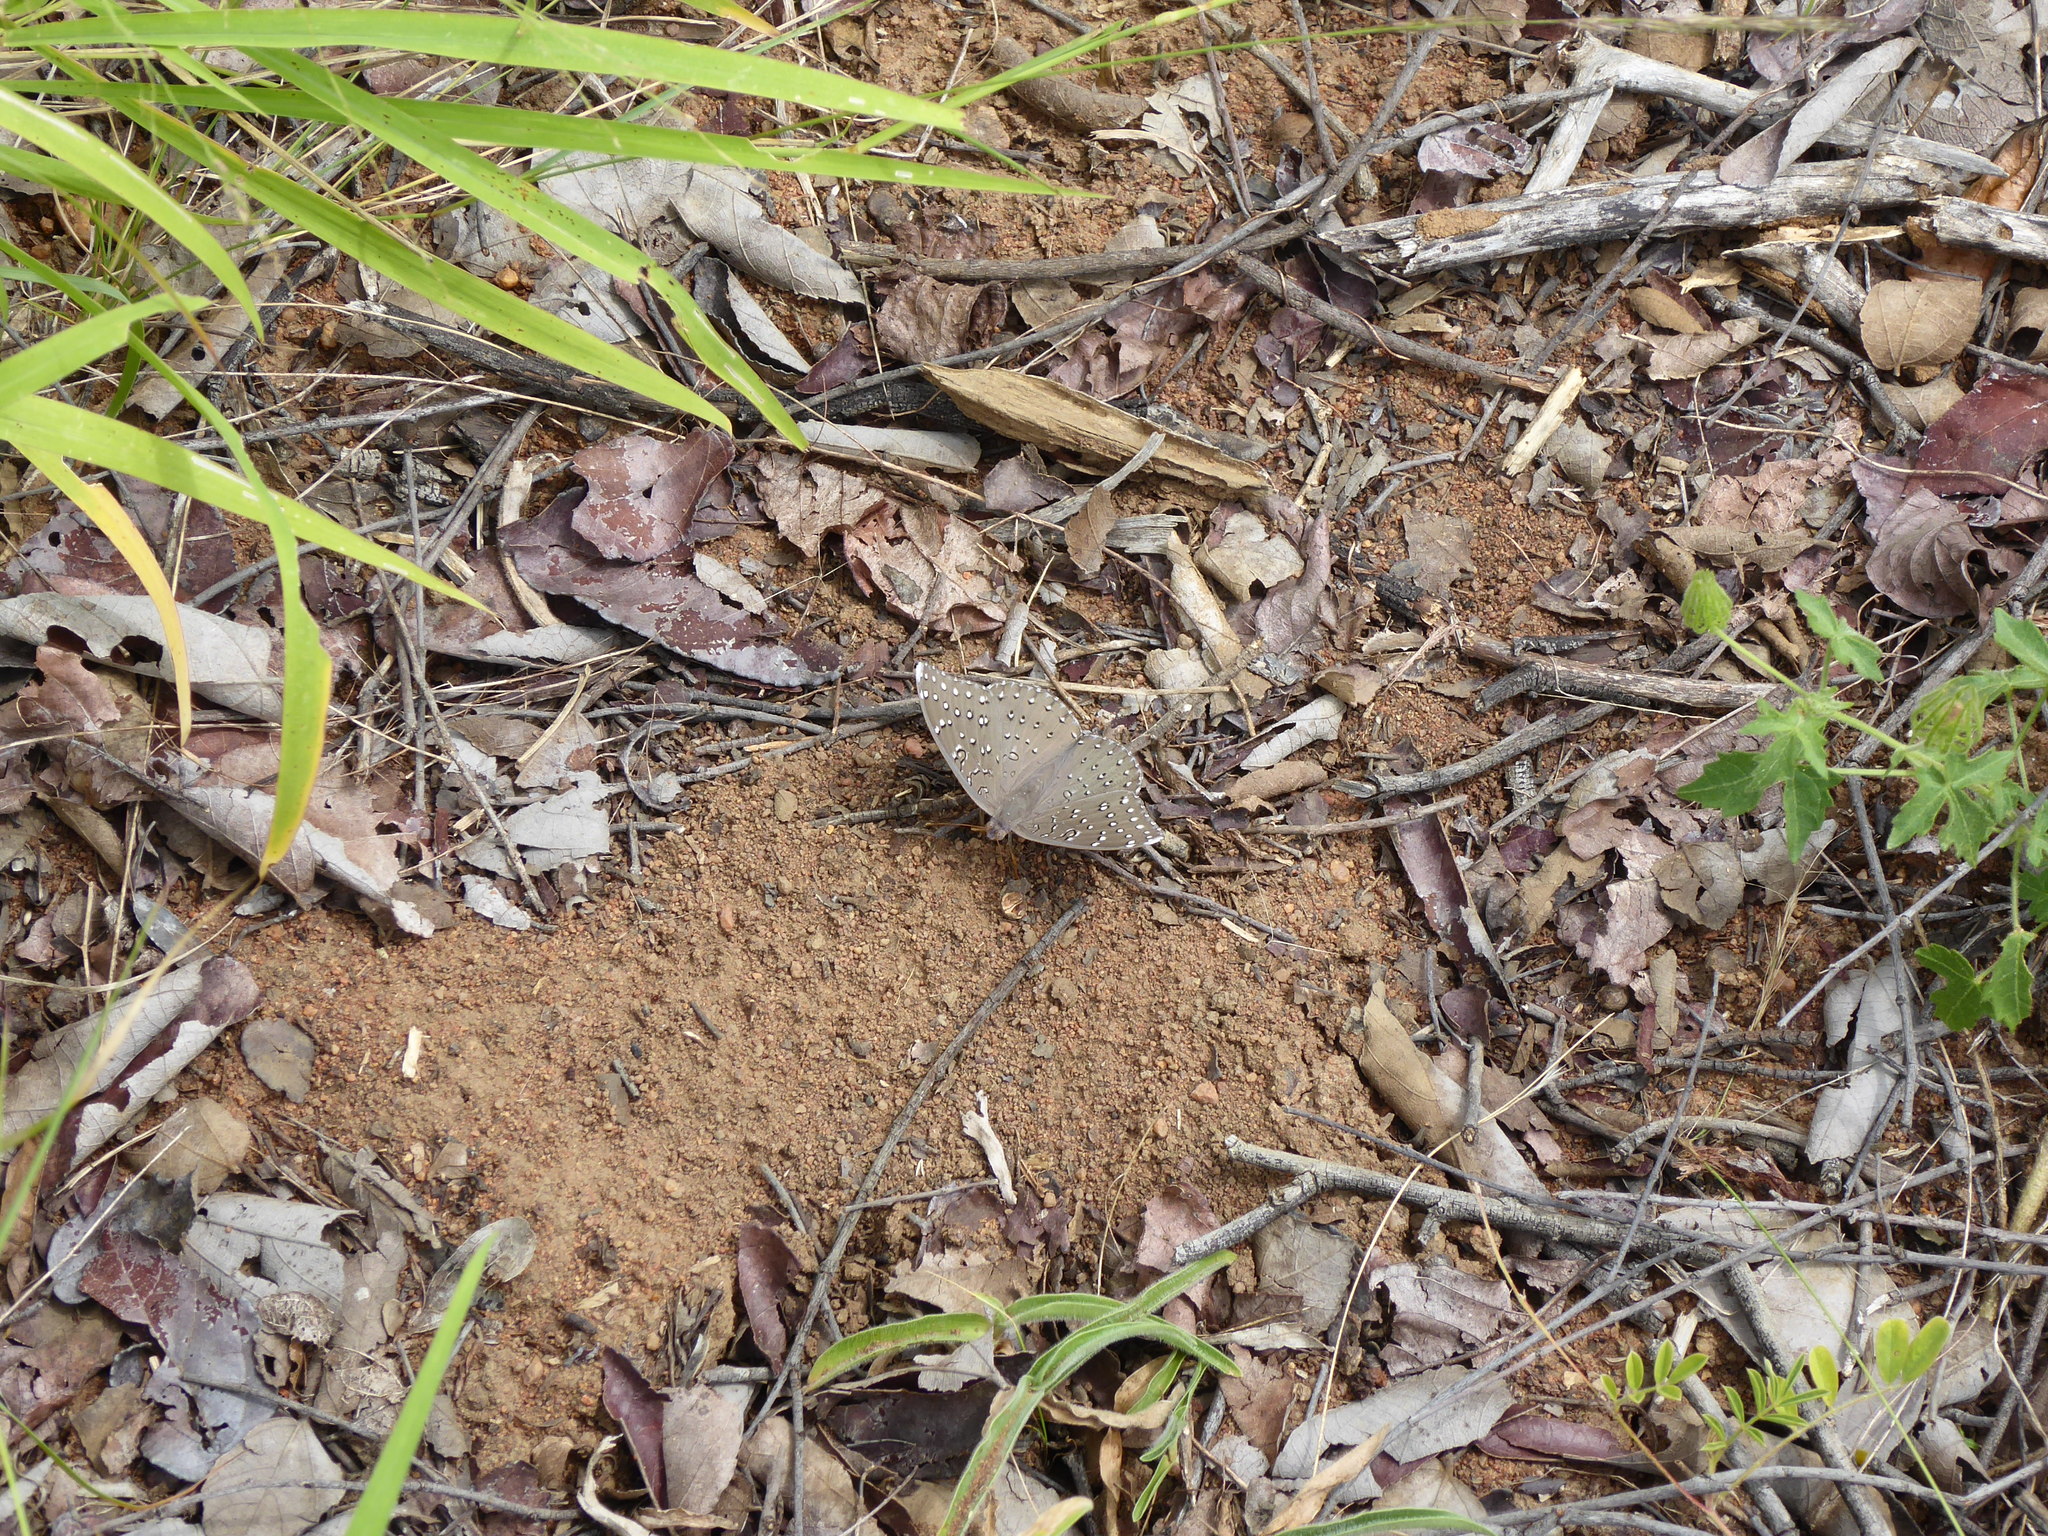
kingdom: Animalia
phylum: Arthropoda
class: Insecta
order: Lepidoptera
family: Nymphalidae
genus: Hamanumida
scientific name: Hamanumida daedalus
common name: Guinea-fowl butterfly
